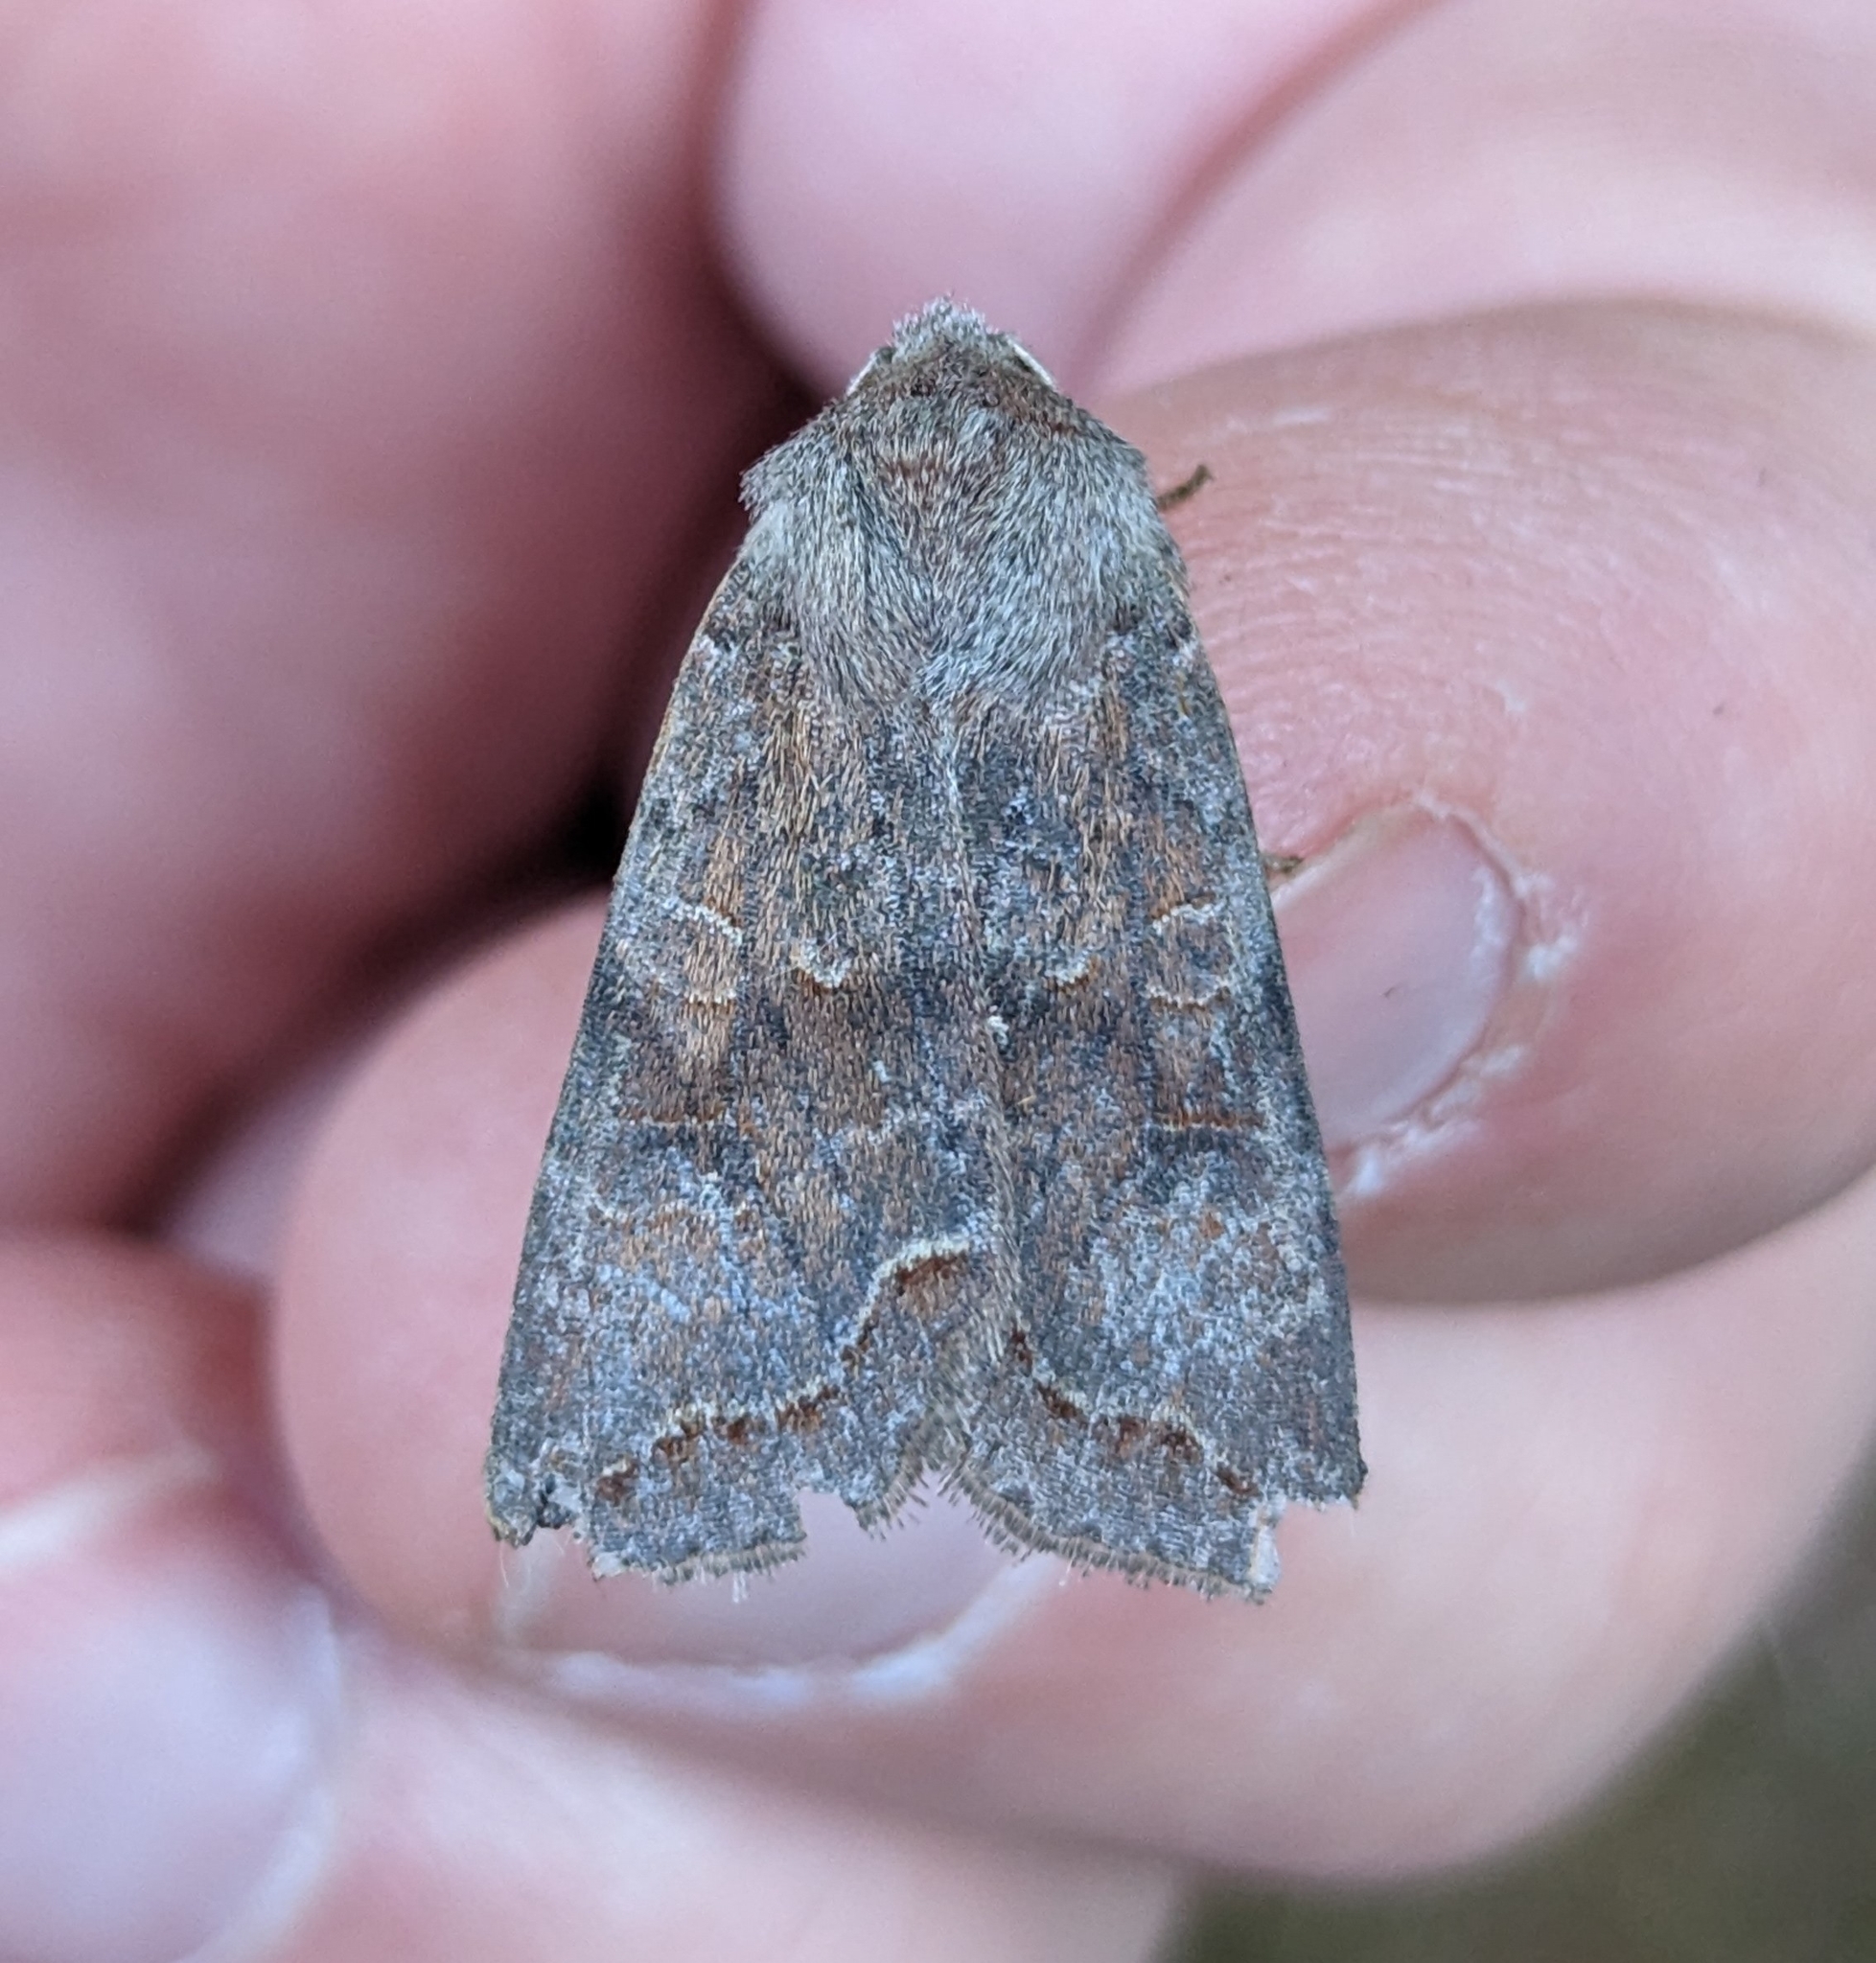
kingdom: Animalia
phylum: Arthropoda
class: Insecta
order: Lepidoptera
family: Noctuidae
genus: Orthosia
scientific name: Orthosia revicta
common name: Rusty whitesided caterpillar
